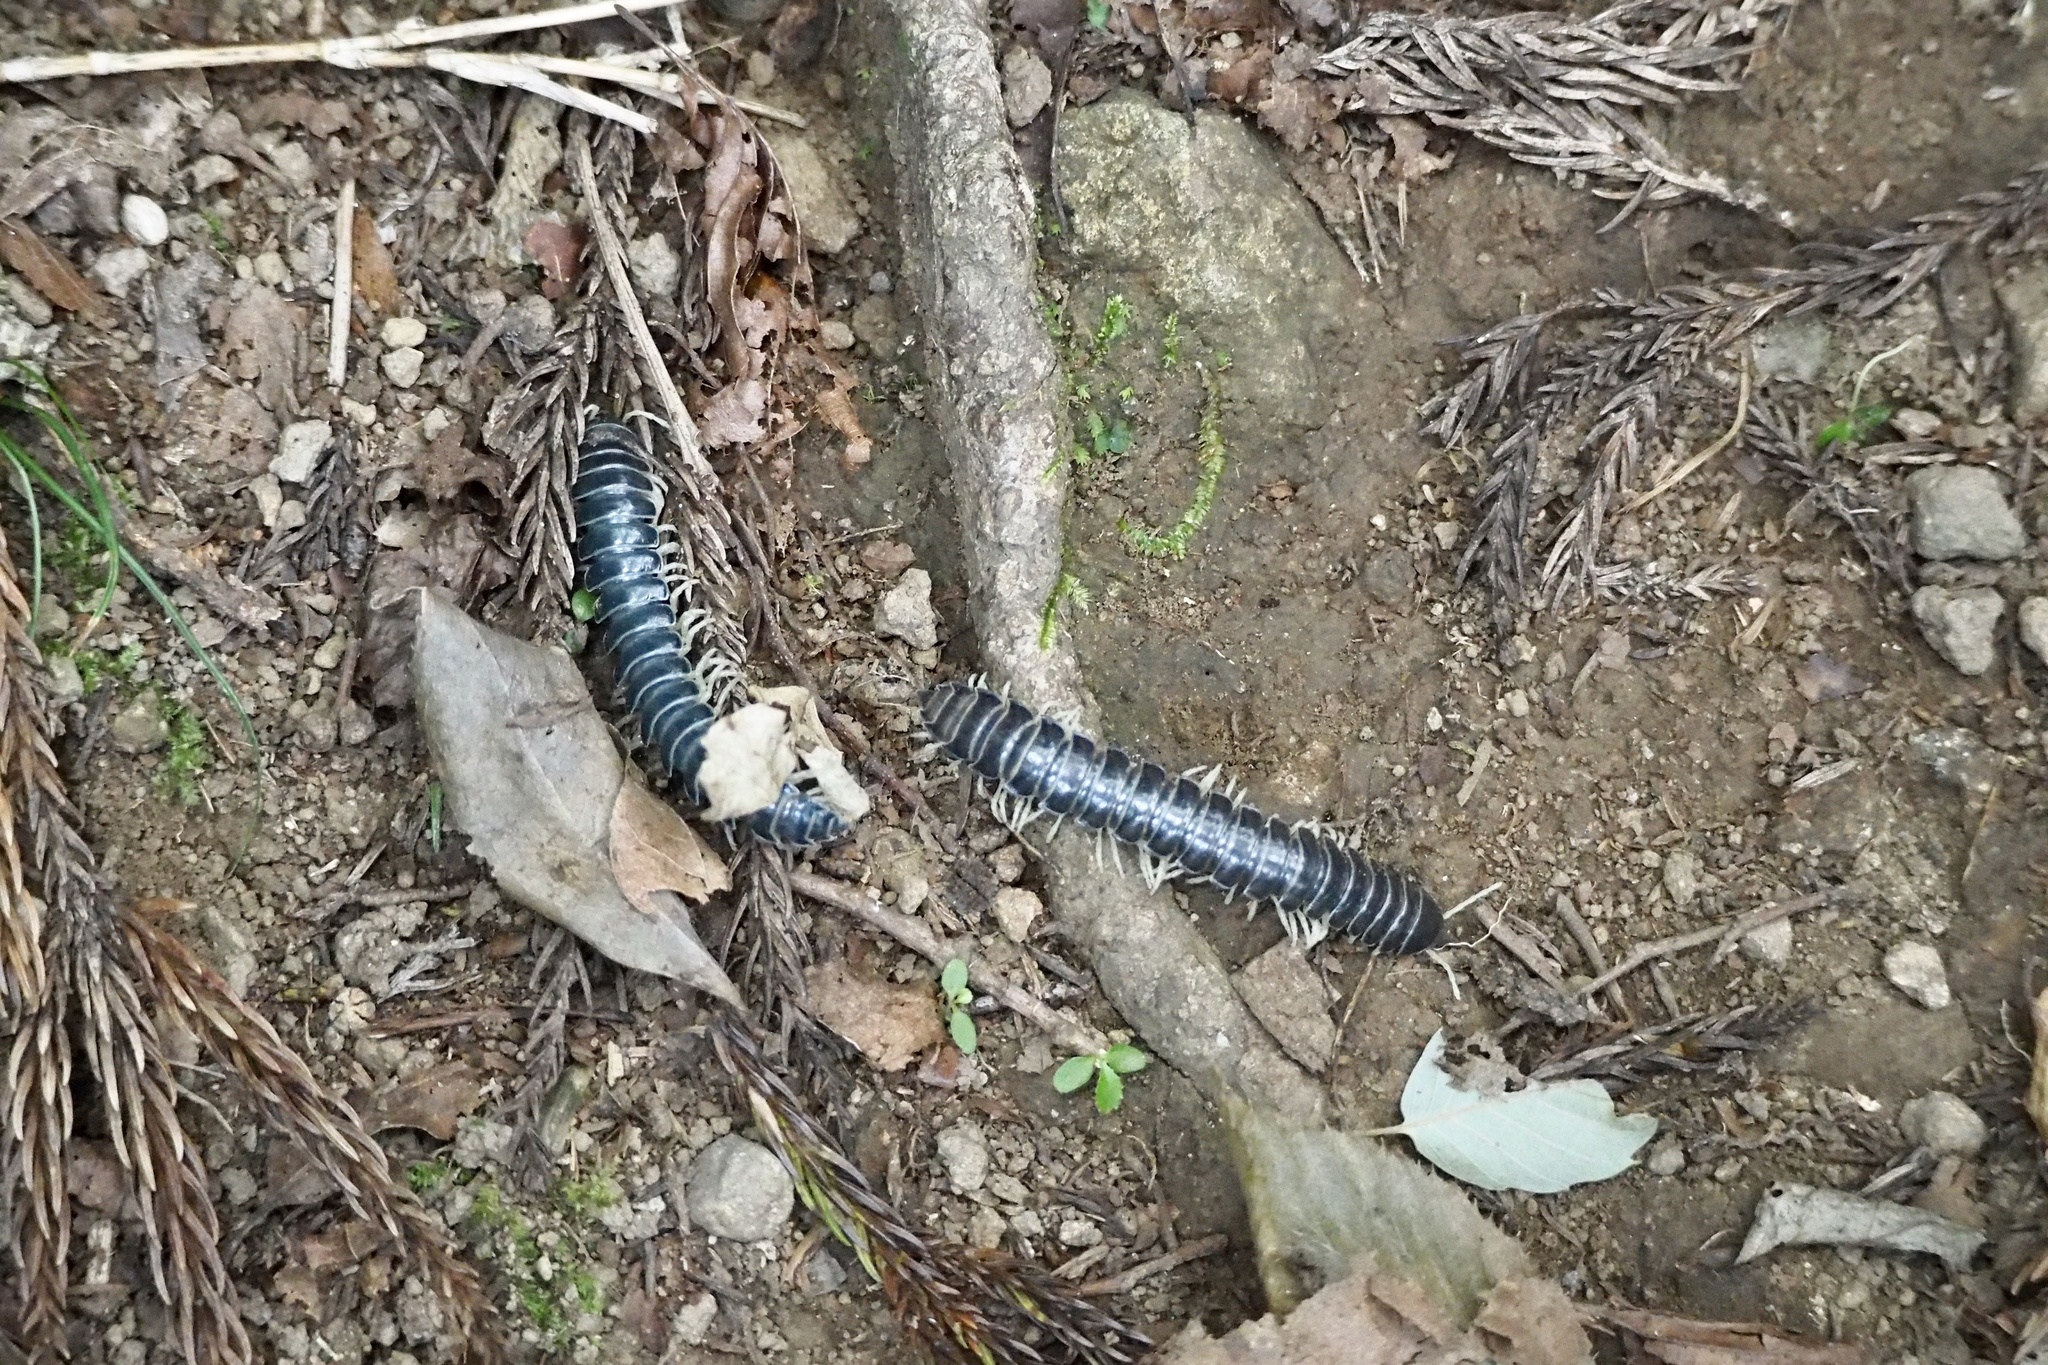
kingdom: Animalia
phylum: Arthropoda
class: Diplopoda
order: Polydesmida
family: Xystodesmidae
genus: Parafontaria
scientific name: Parafontaria tonominea
